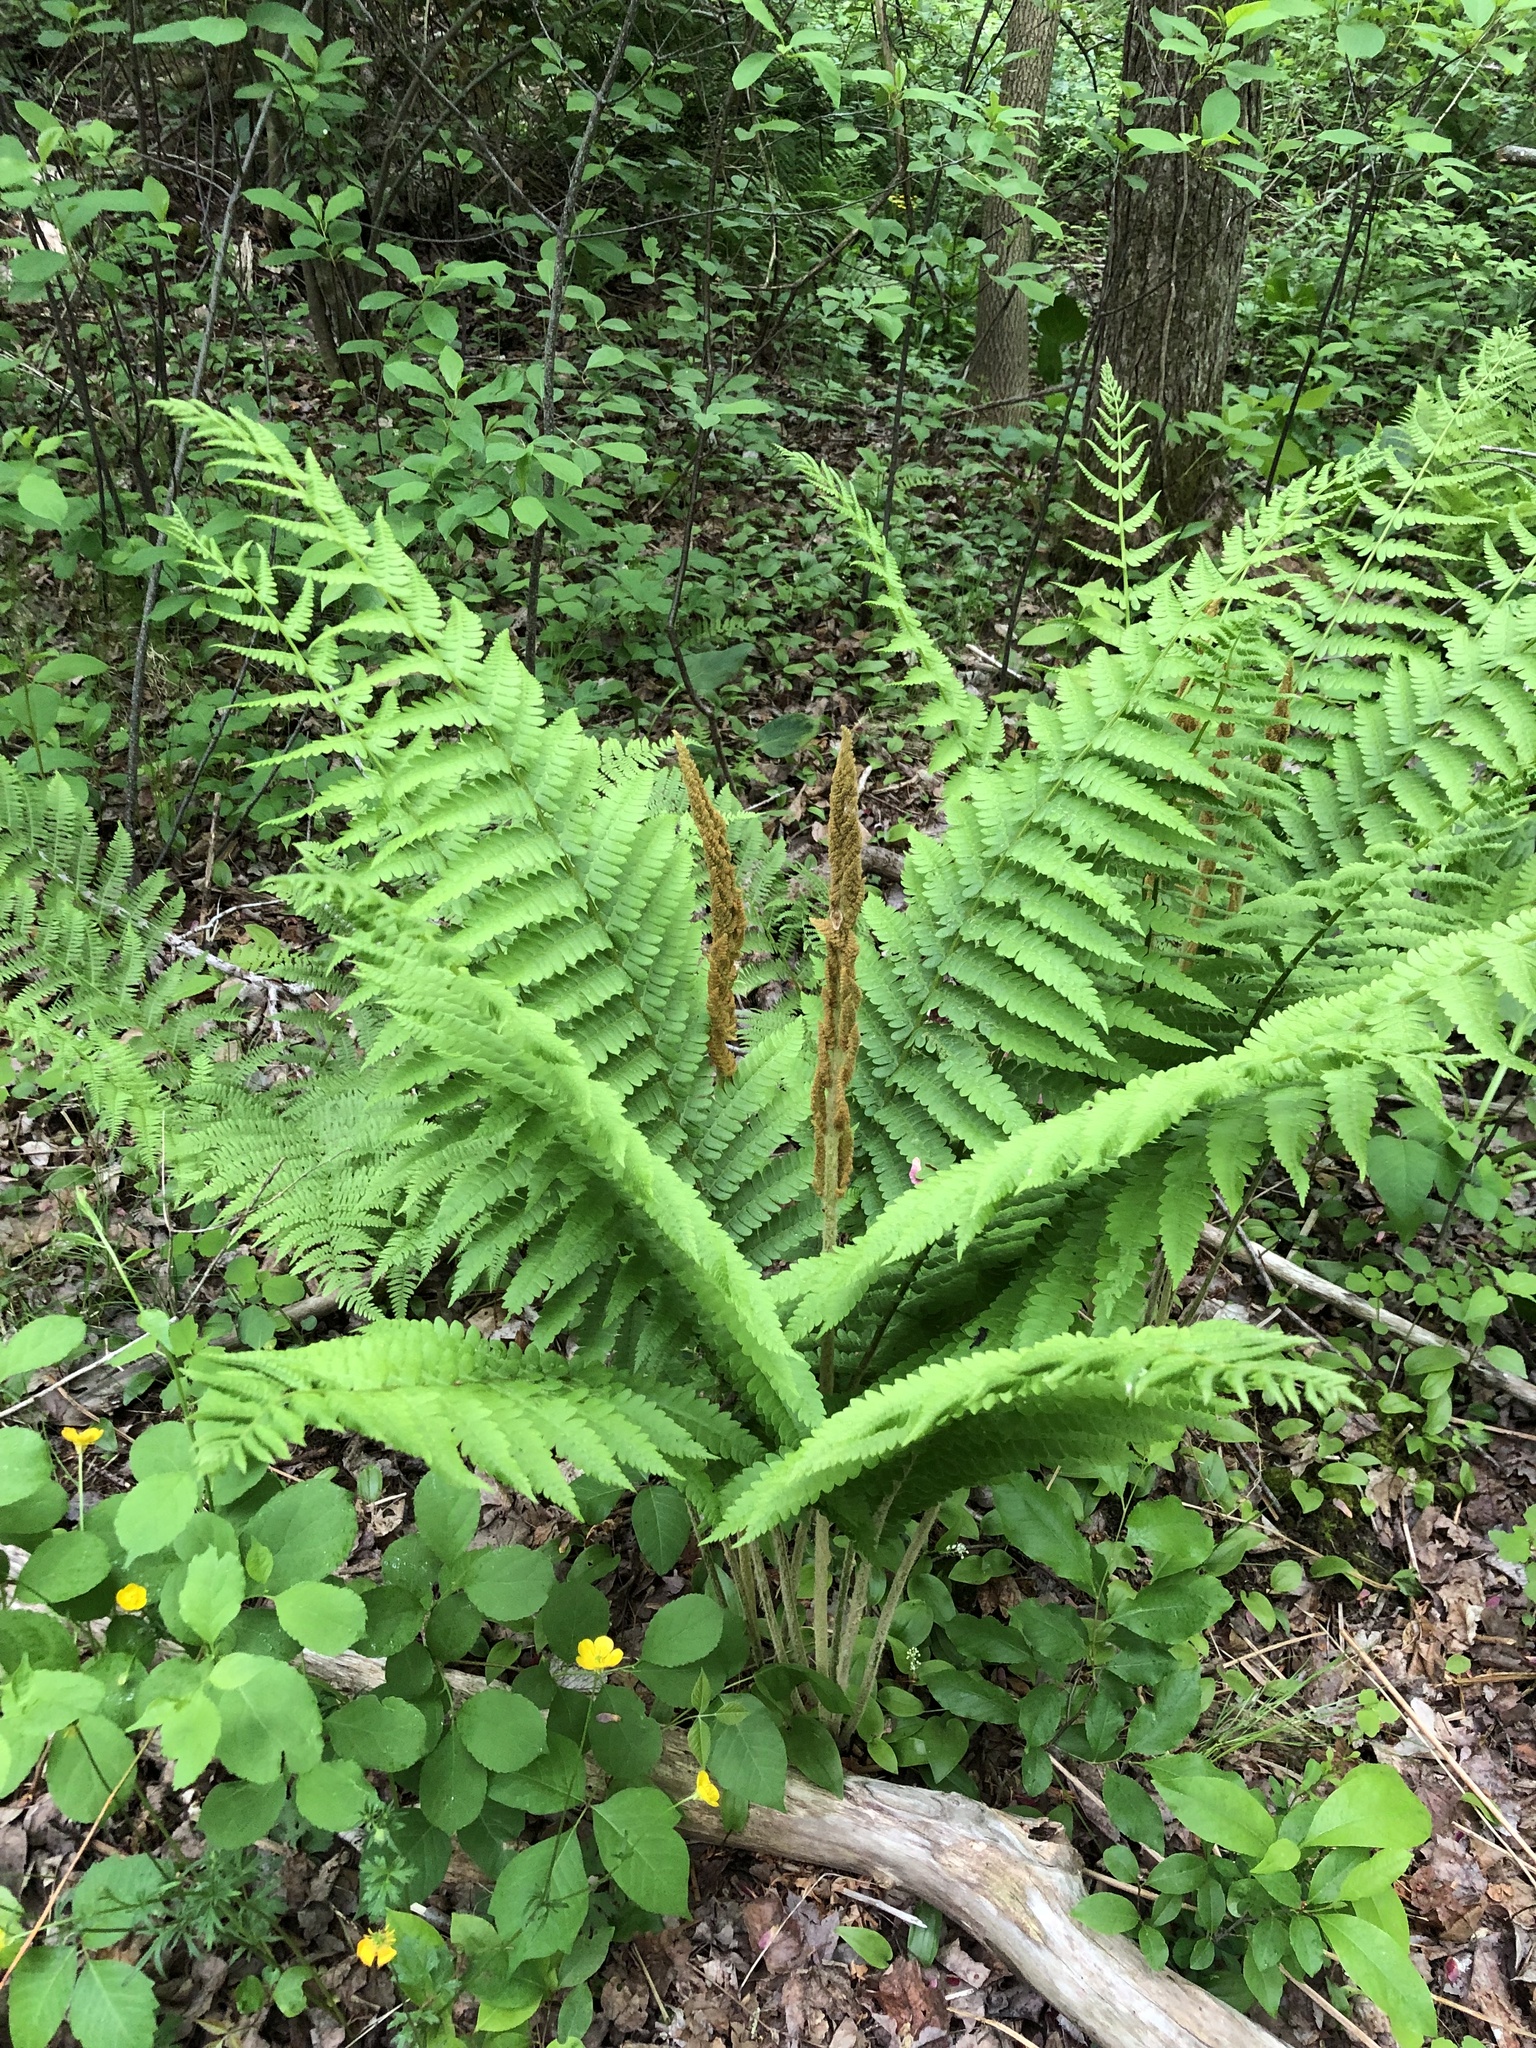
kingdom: Plantae
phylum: Tracheophyta
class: Polypodiopsida
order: Osmundales
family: Osmundaceae
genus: Osmundastrum
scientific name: Osmundastrum cinnamomeum
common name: Cinnamon fern
